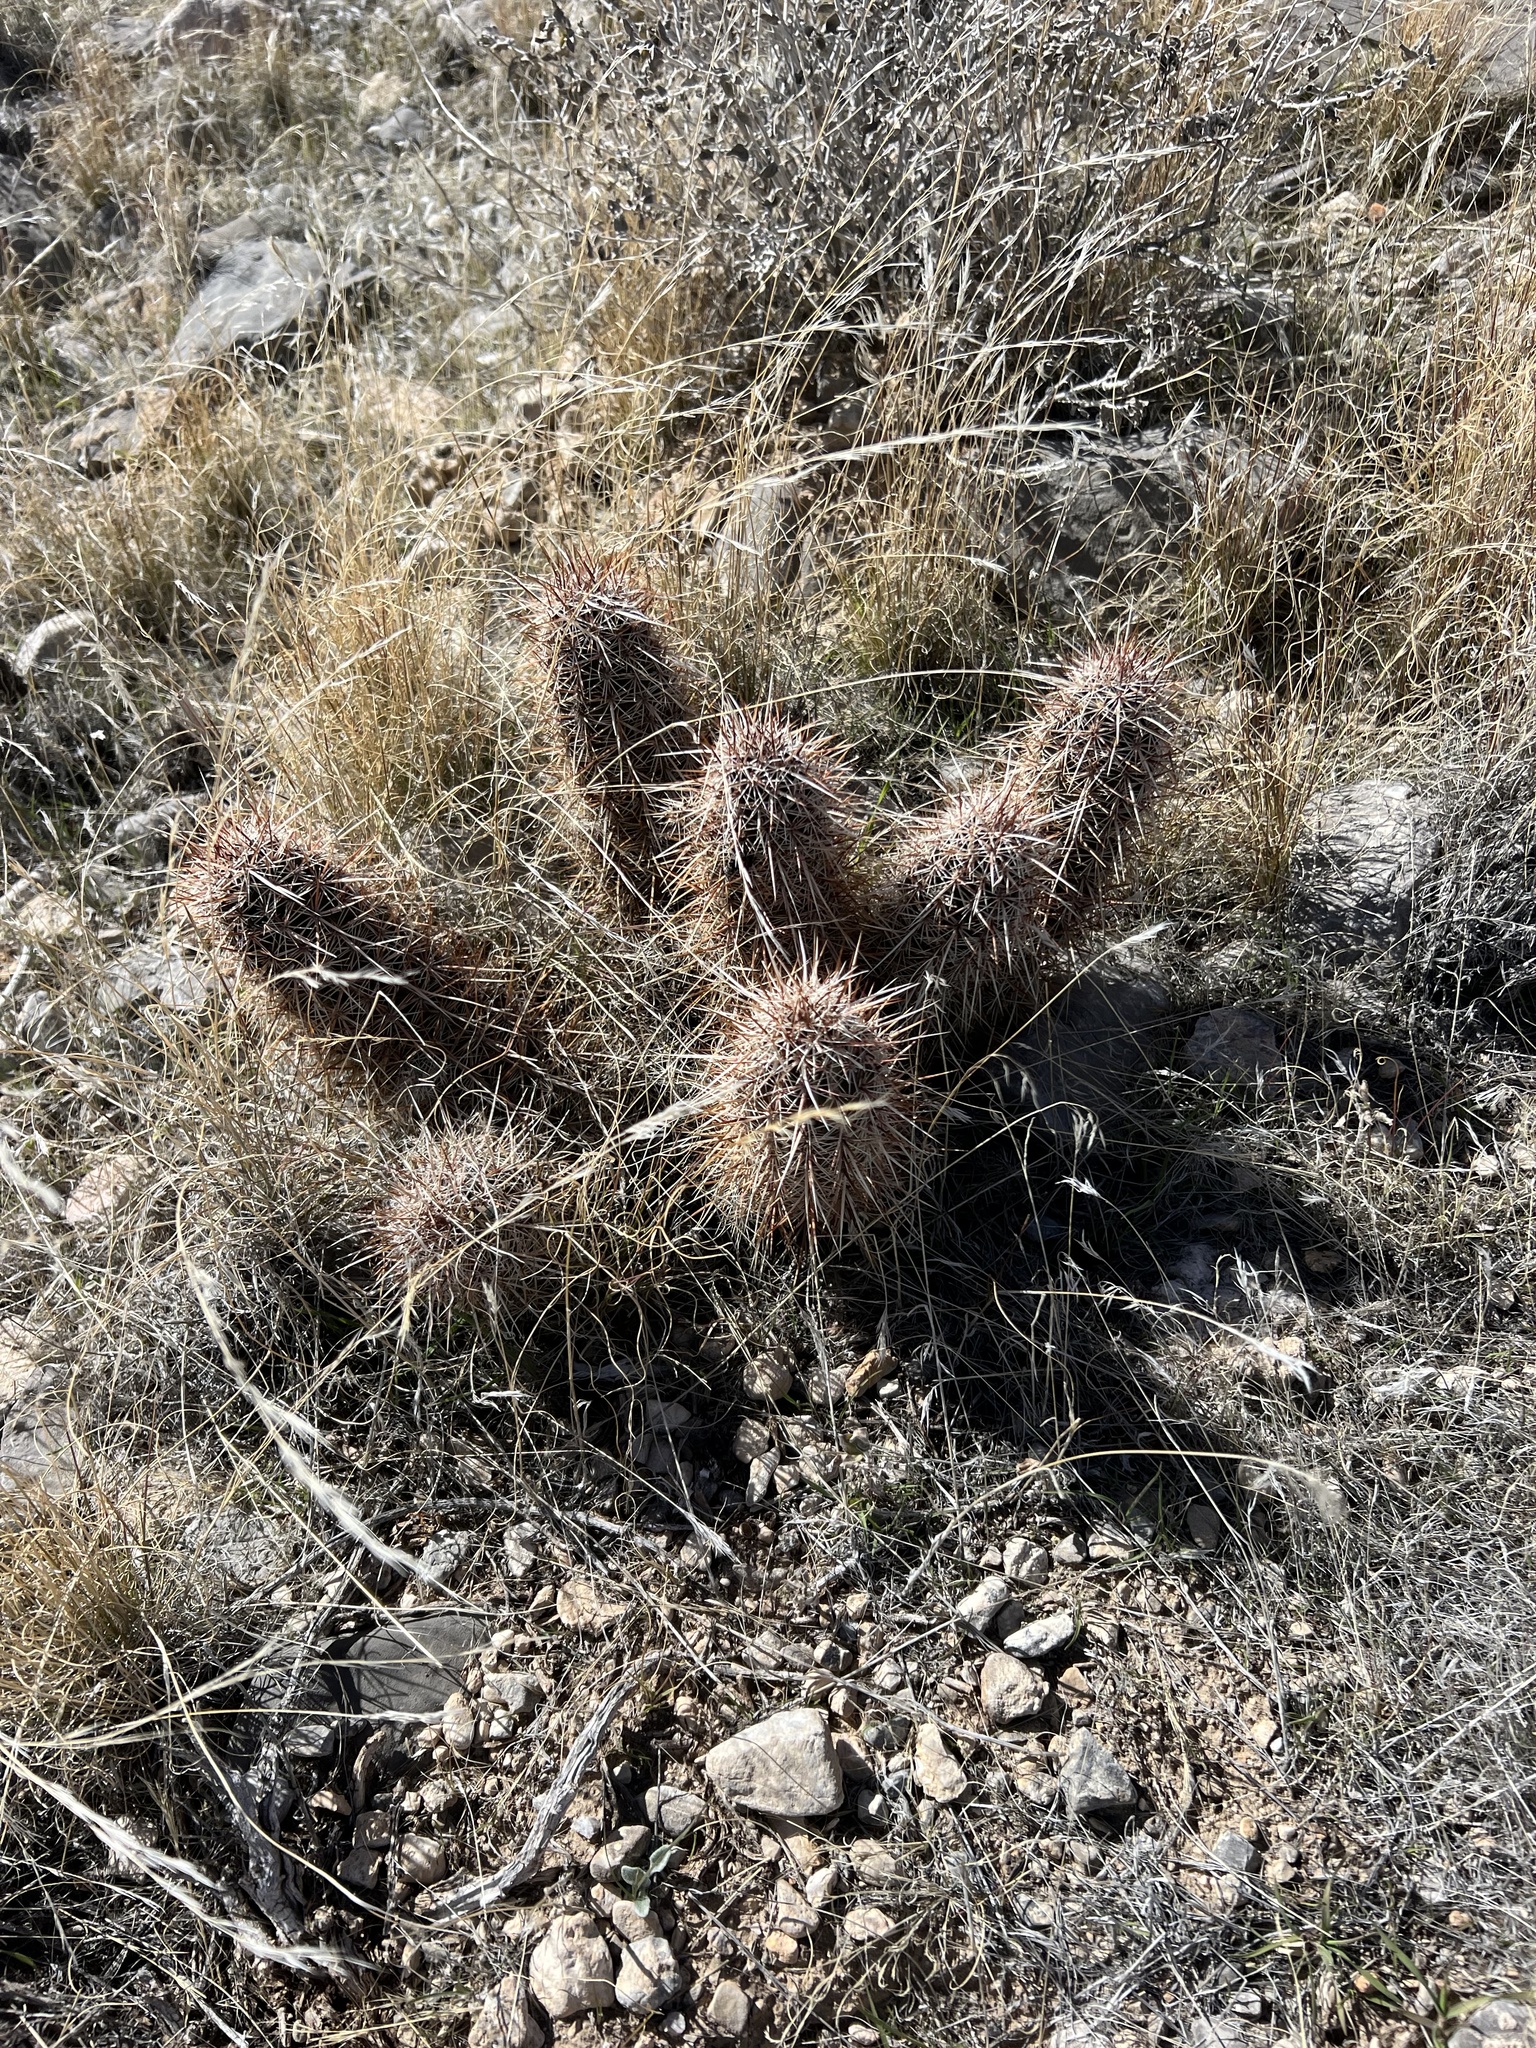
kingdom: Plantae
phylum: Tracheophyta
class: Magnoliopsida
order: Caryophyllales
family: Cactaceae
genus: Echinocereus
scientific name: Echinocereus engelmannii
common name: Engelmann's hedgehog cactus
